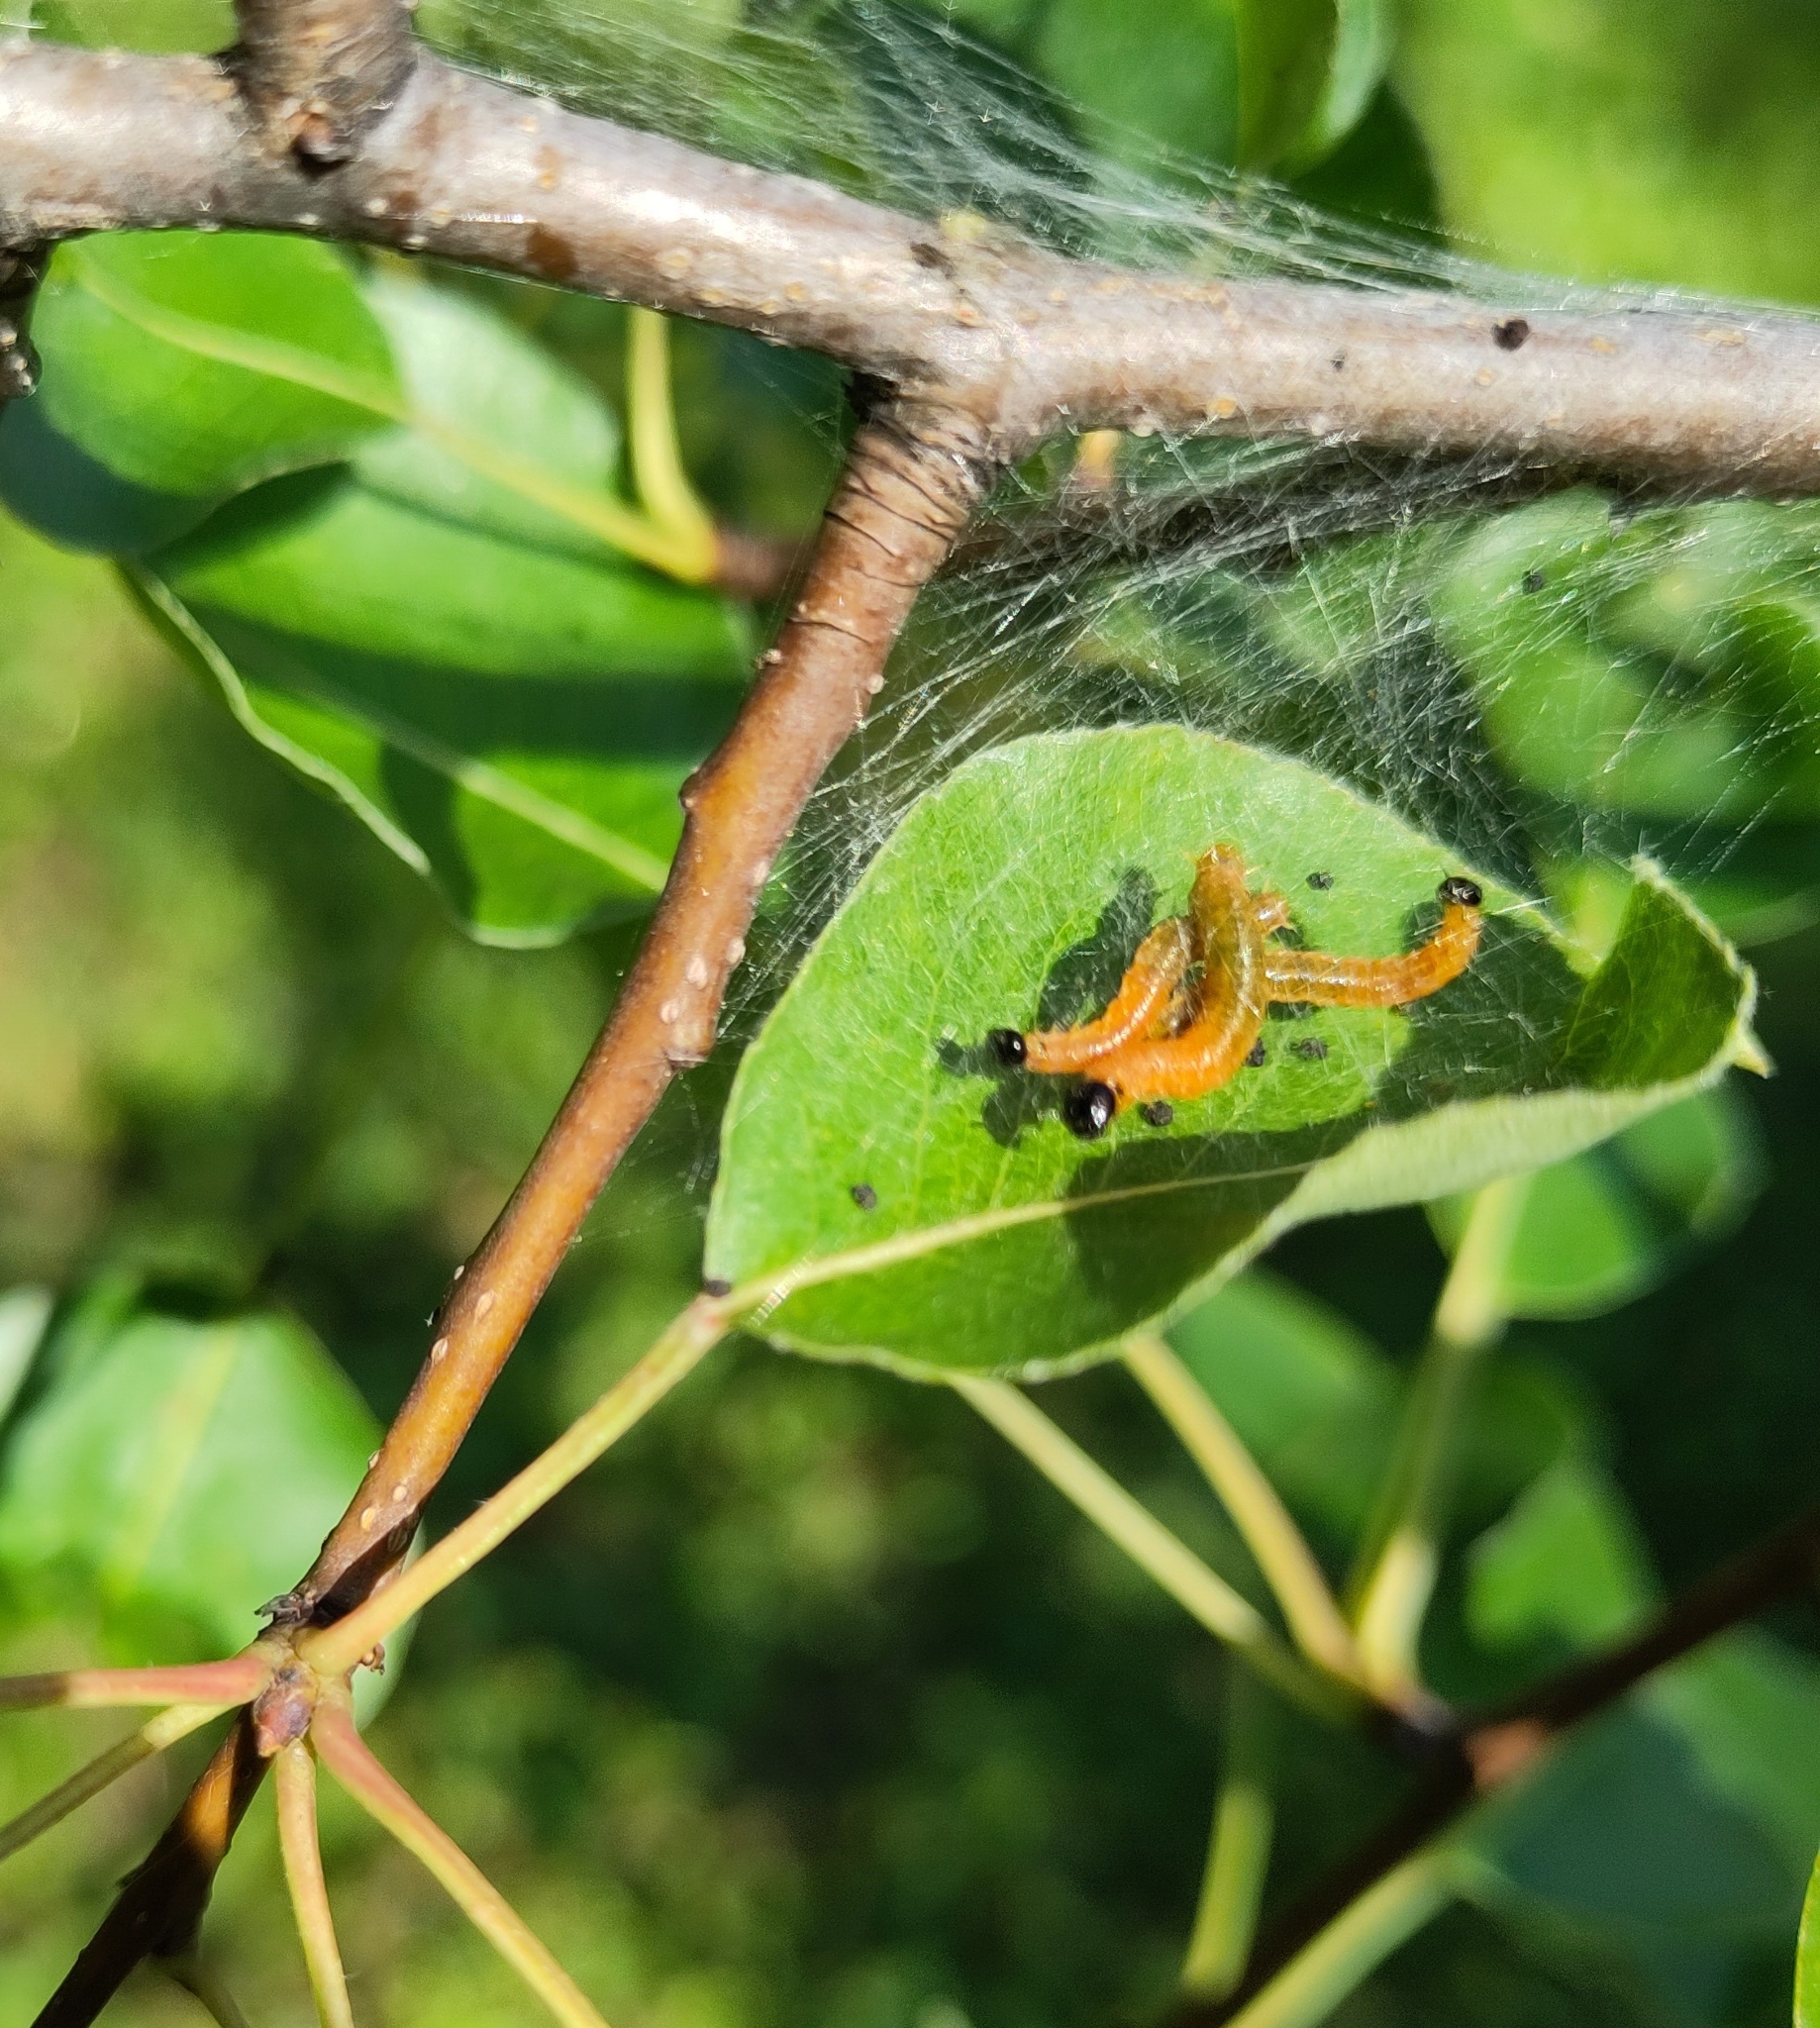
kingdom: Animalia
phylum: Arthropoda
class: Insecta
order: Hymenoptera
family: Pamphiliidae
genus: Neurotoma
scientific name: Neurotoma saltuum
